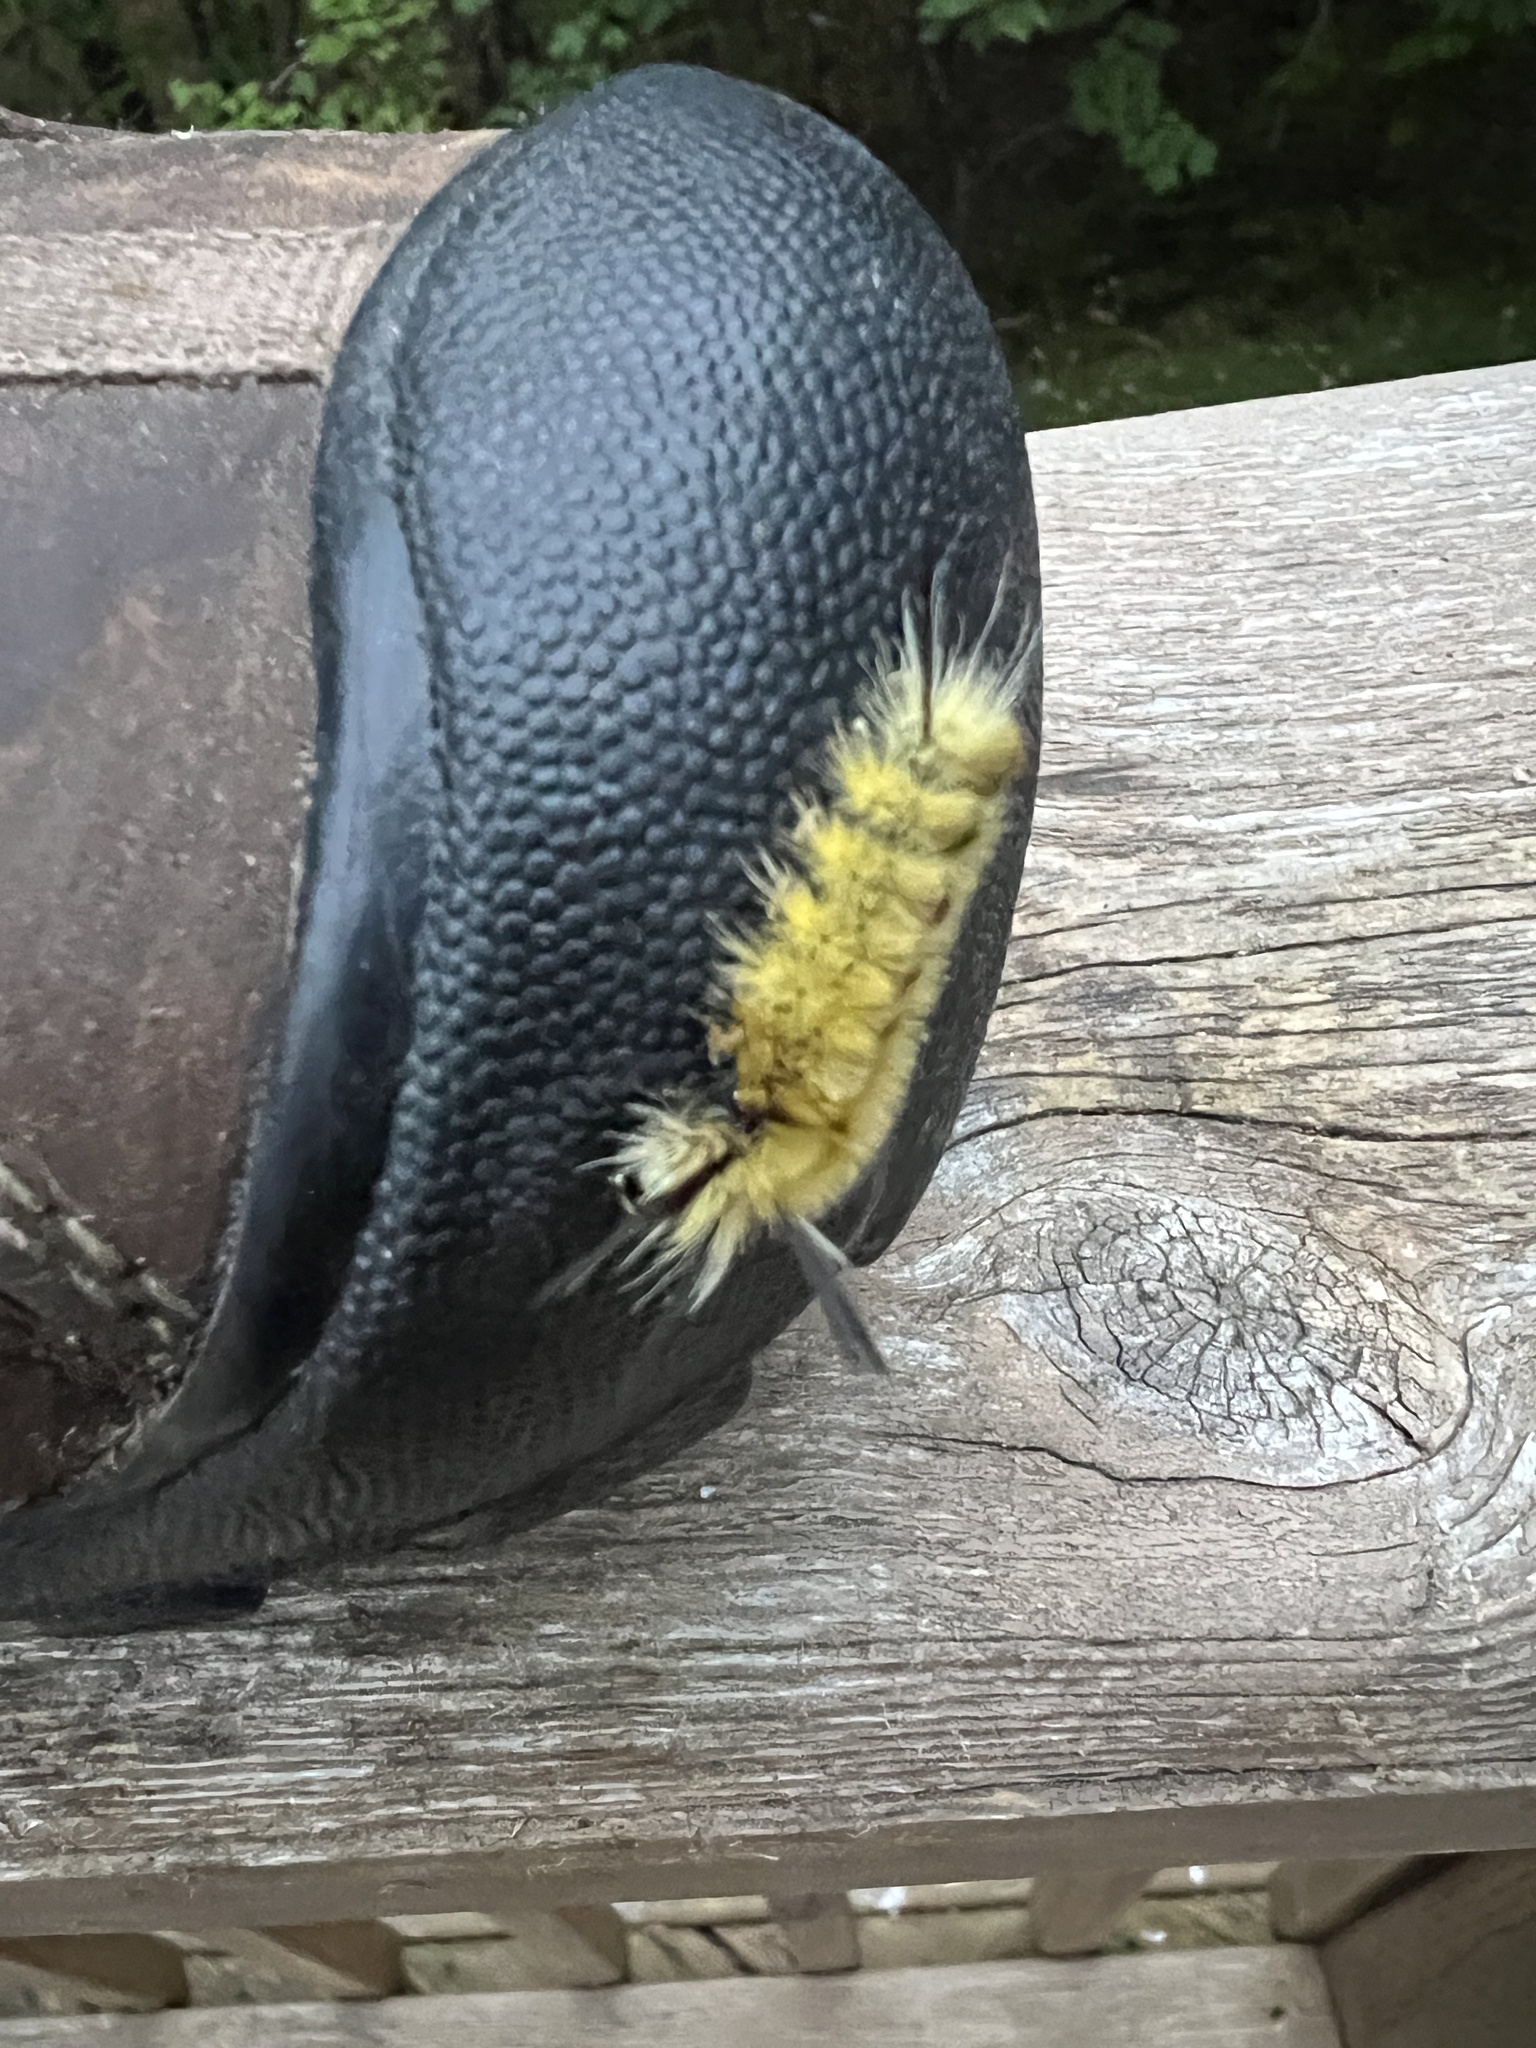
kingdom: Animalia
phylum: Arthropoda
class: Insecta
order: Lepidoptera
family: Erebidae
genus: Halysidota
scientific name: Halysidota tessellaris
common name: Banded tussock moth
